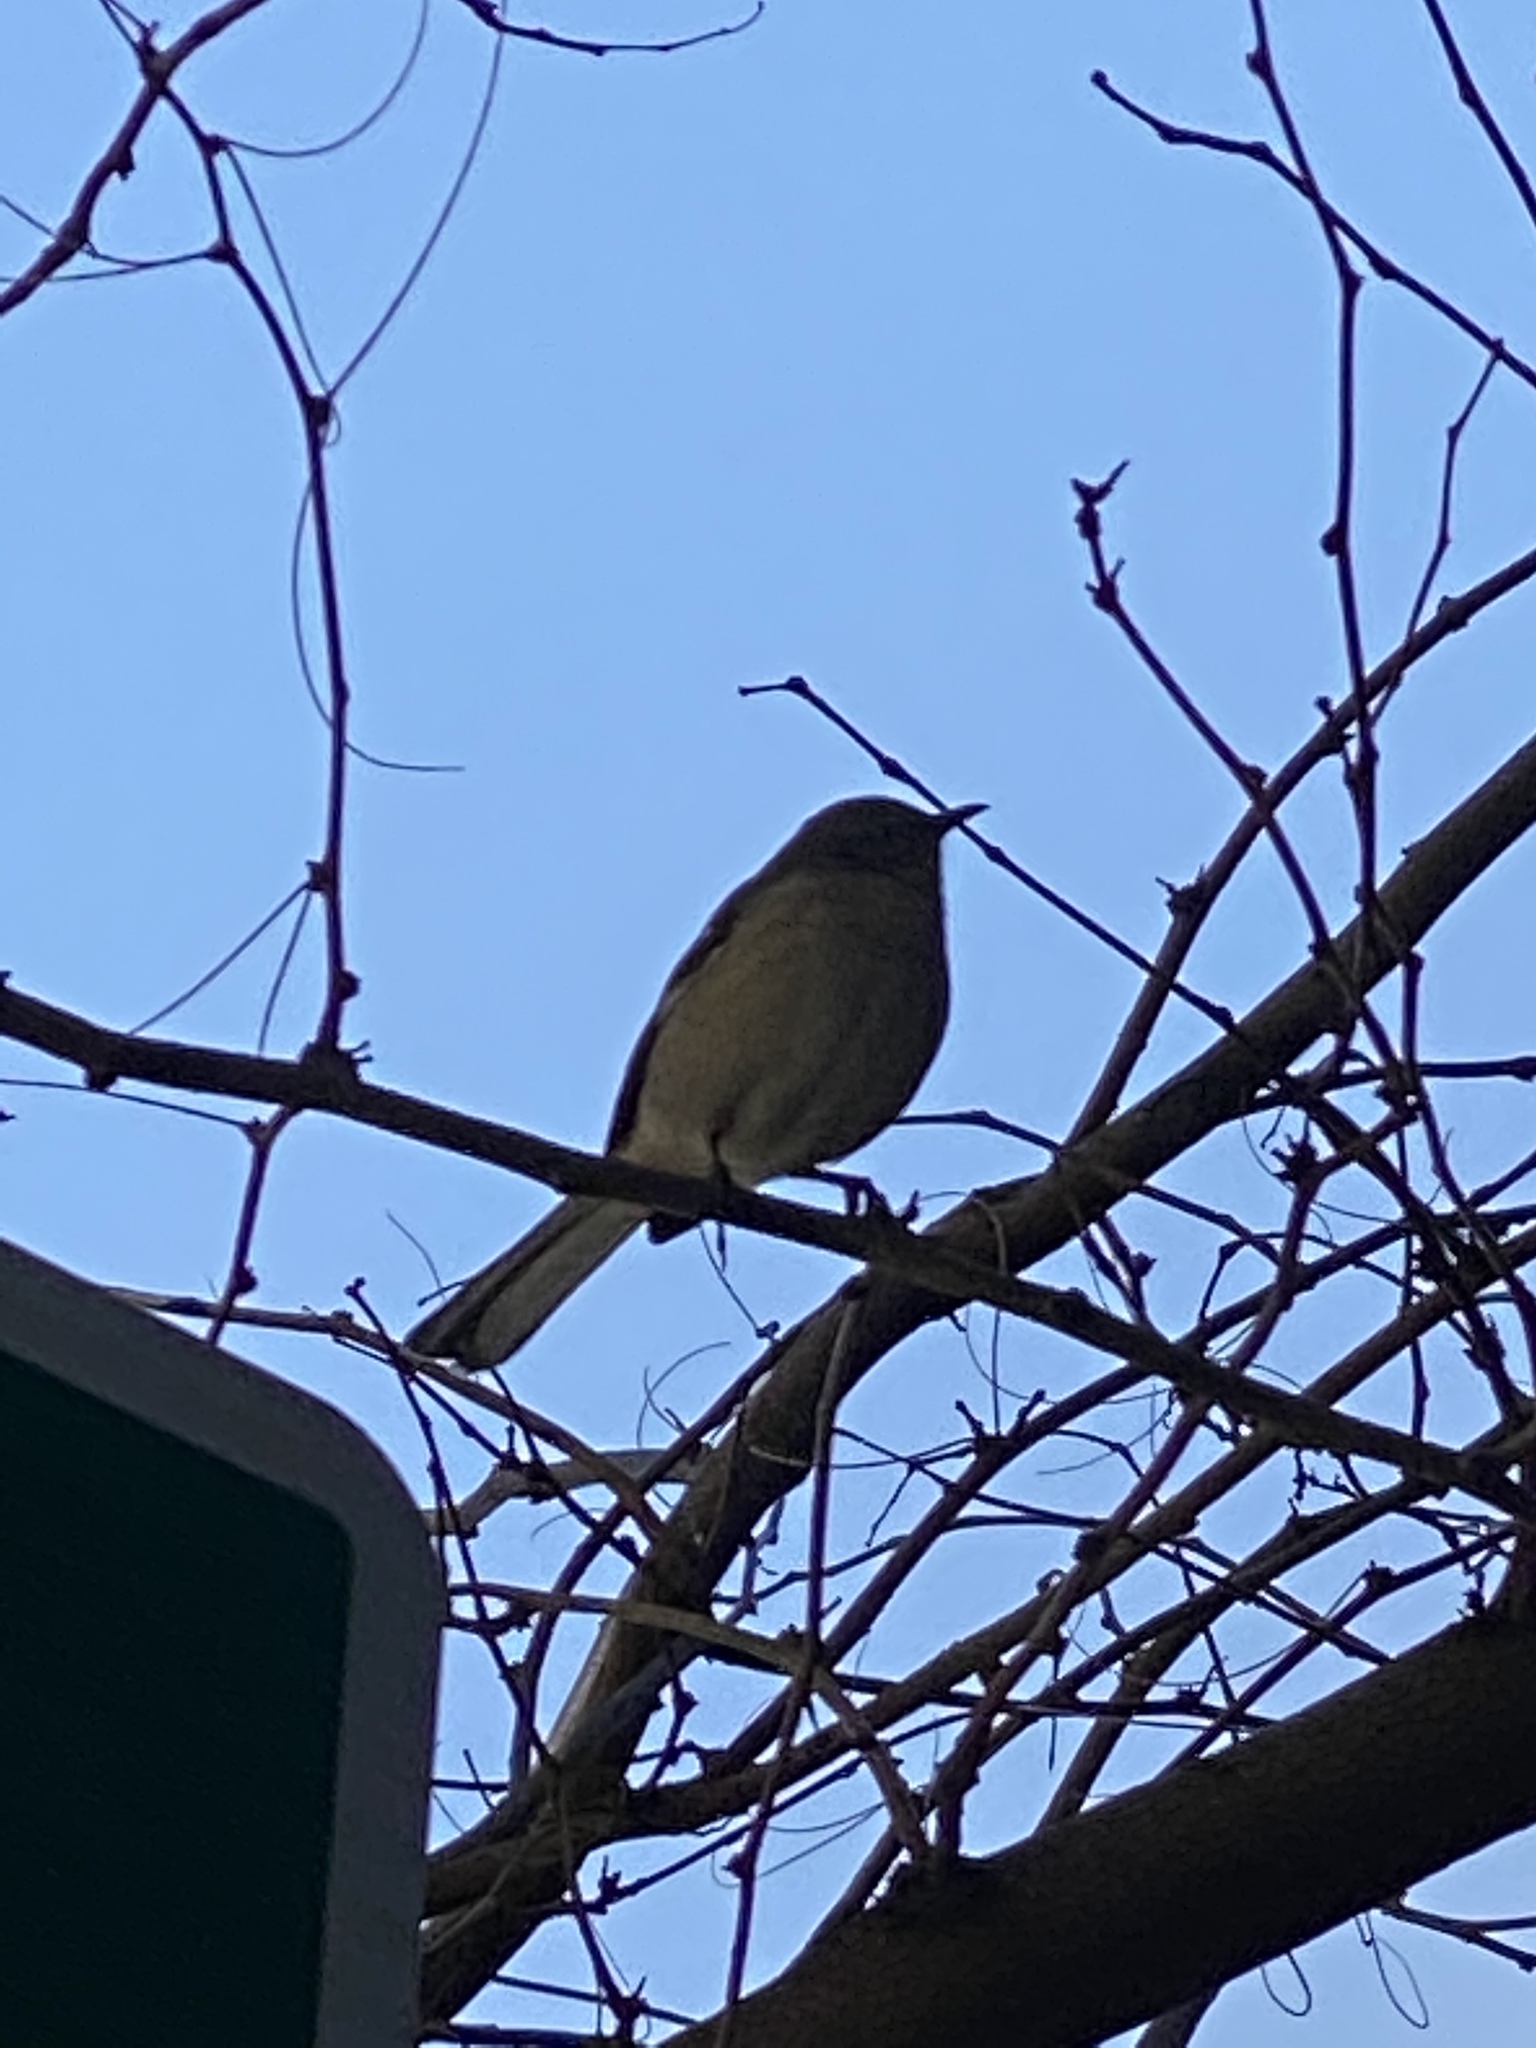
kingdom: Animalia
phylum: Chordata
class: Aves
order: Passeriformes
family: Mimidae
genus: Mimus
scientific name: Mimus polyglottos
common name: Northern mockingbird
